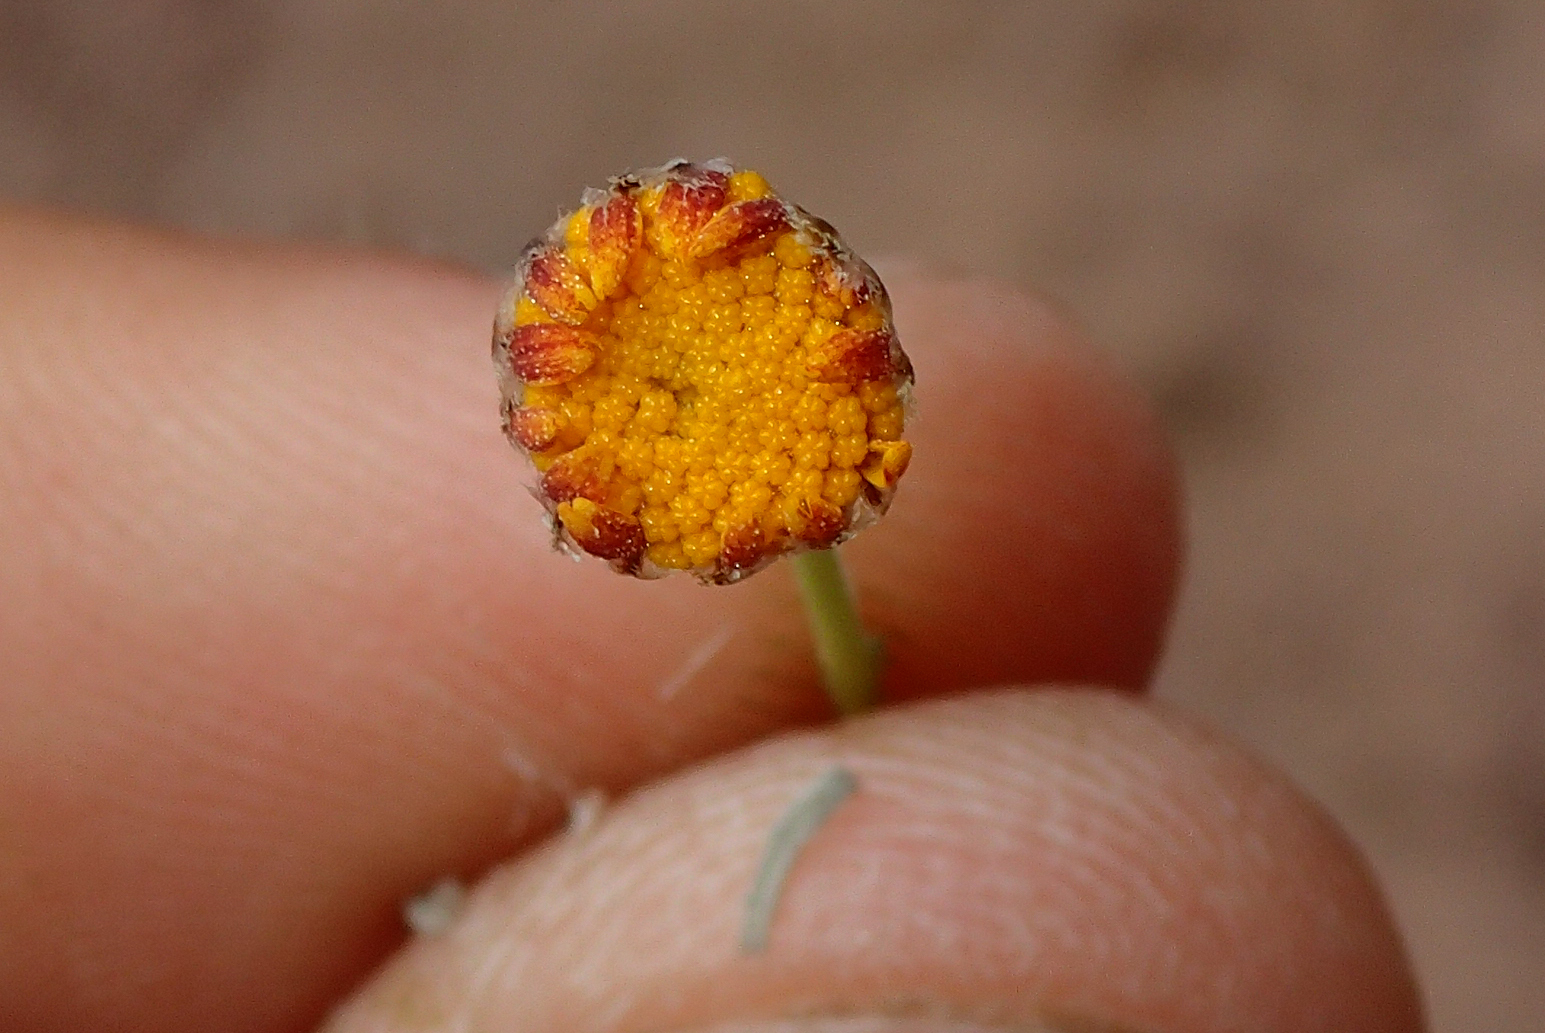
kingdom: Plantae
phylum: Tracheophyta
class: Magnoliopsida
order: Asterales
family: Asteraceae
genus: Cladanthus
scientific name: Cladanthus scariosus
